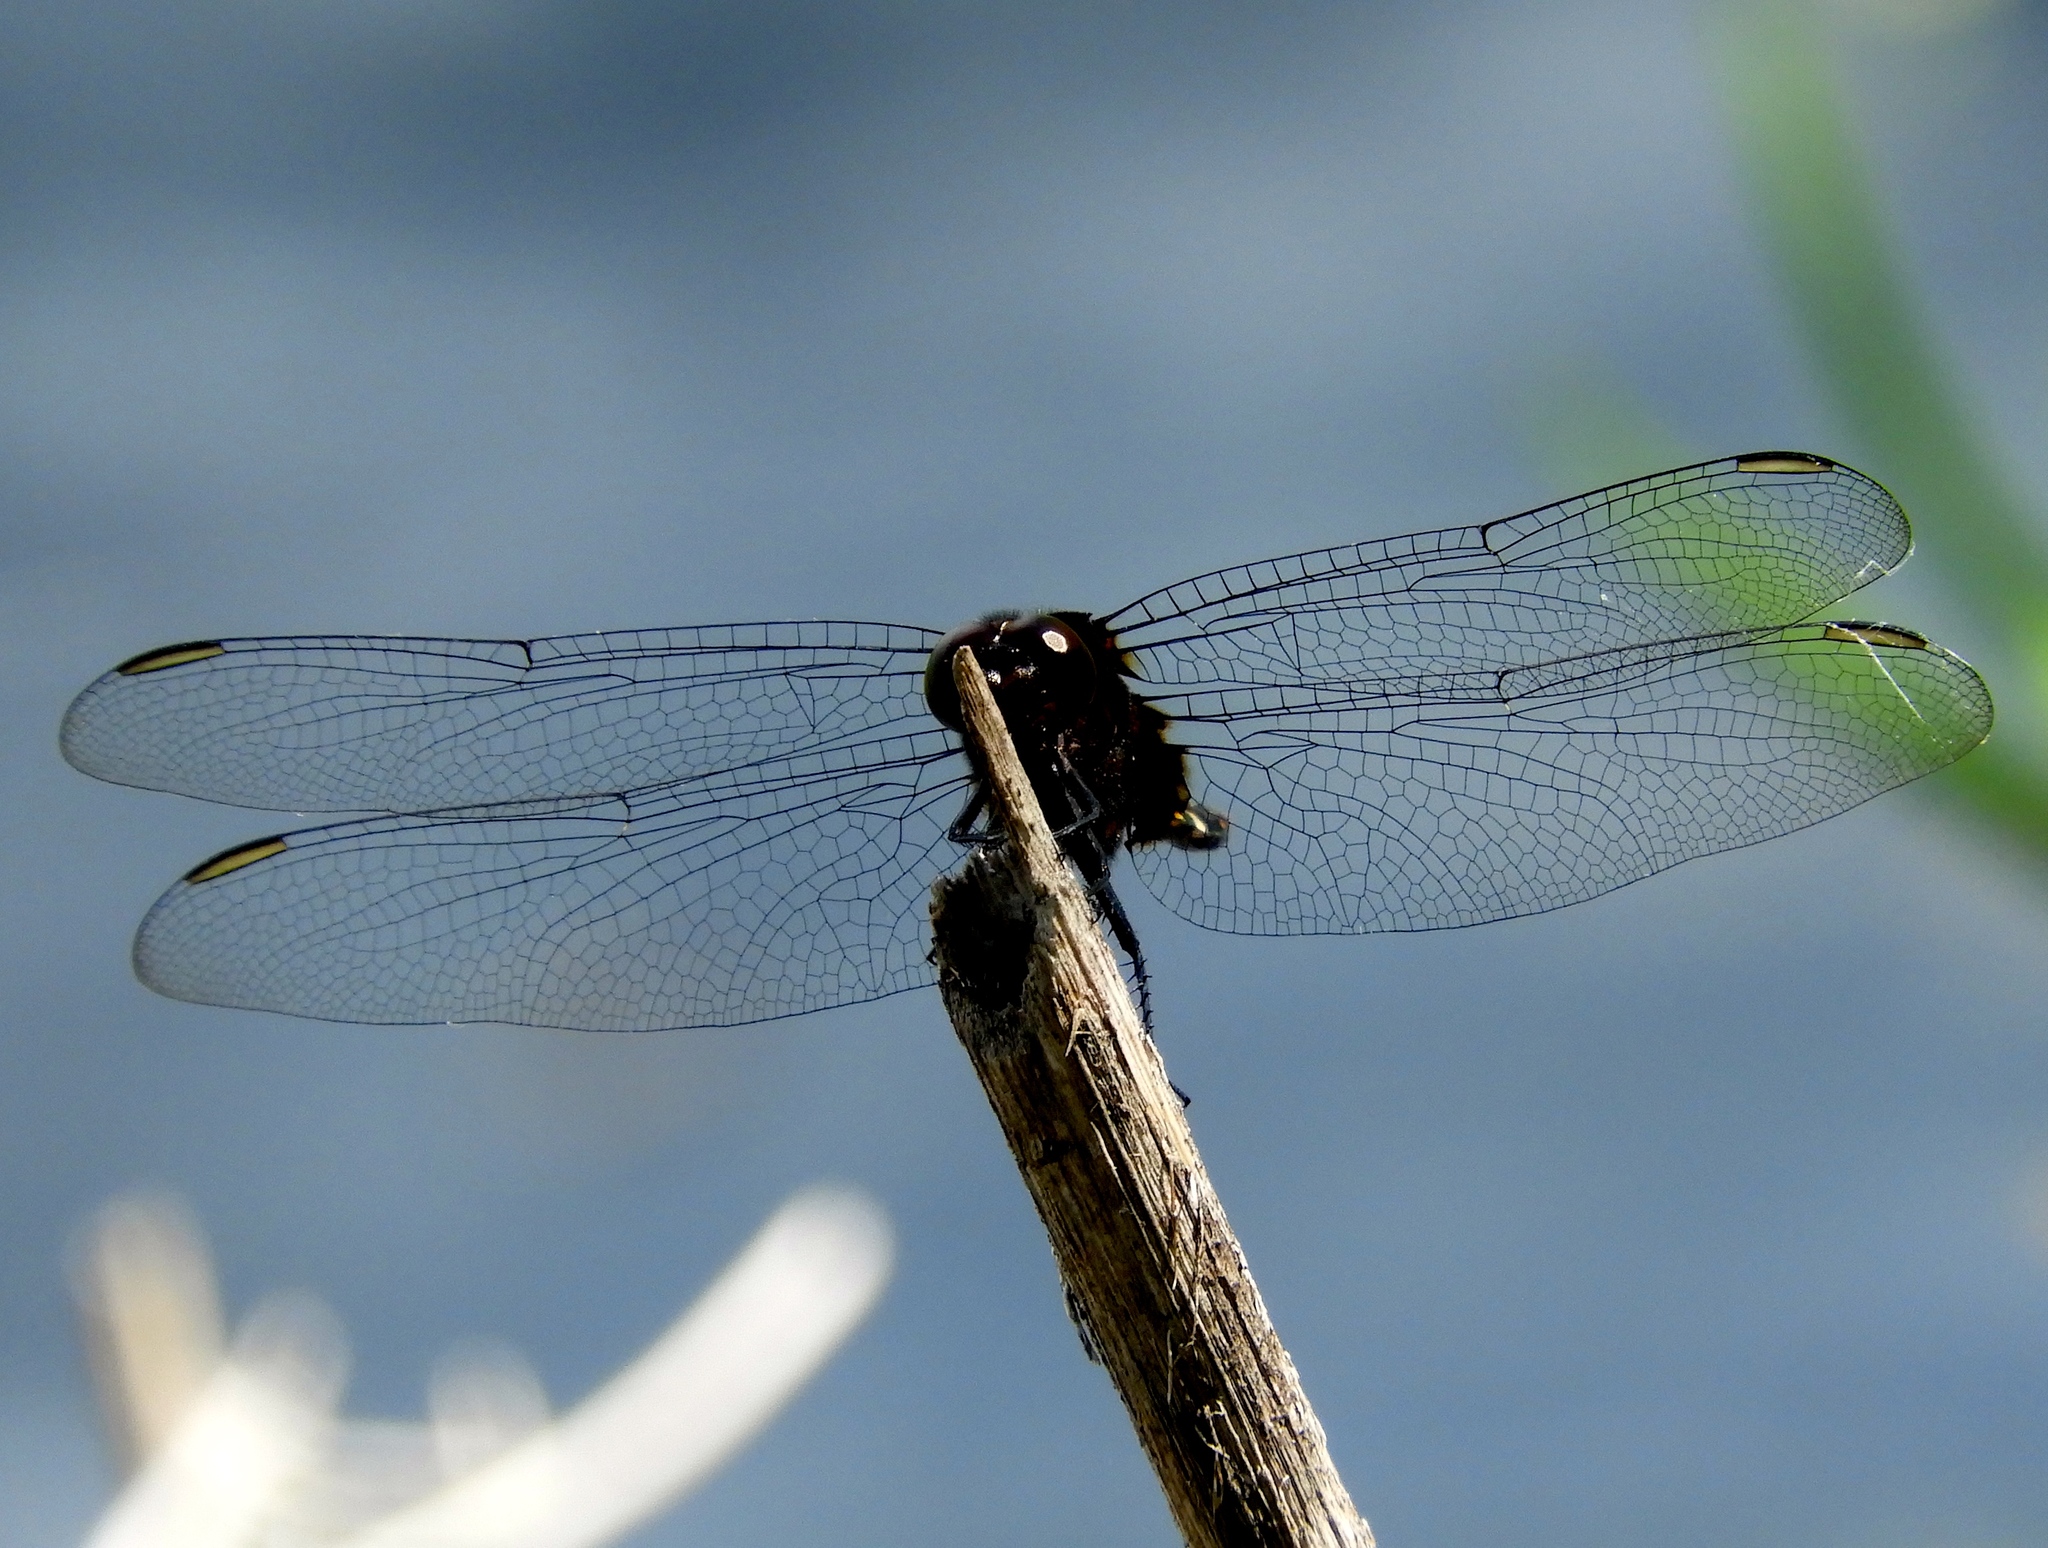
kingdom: Animalia
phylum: Arthropoda
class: Insecta
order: Odonata
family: Libellulidae
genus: Erythemis
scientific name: Erythemis plebeja
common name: Pin-tailed pondhawk
